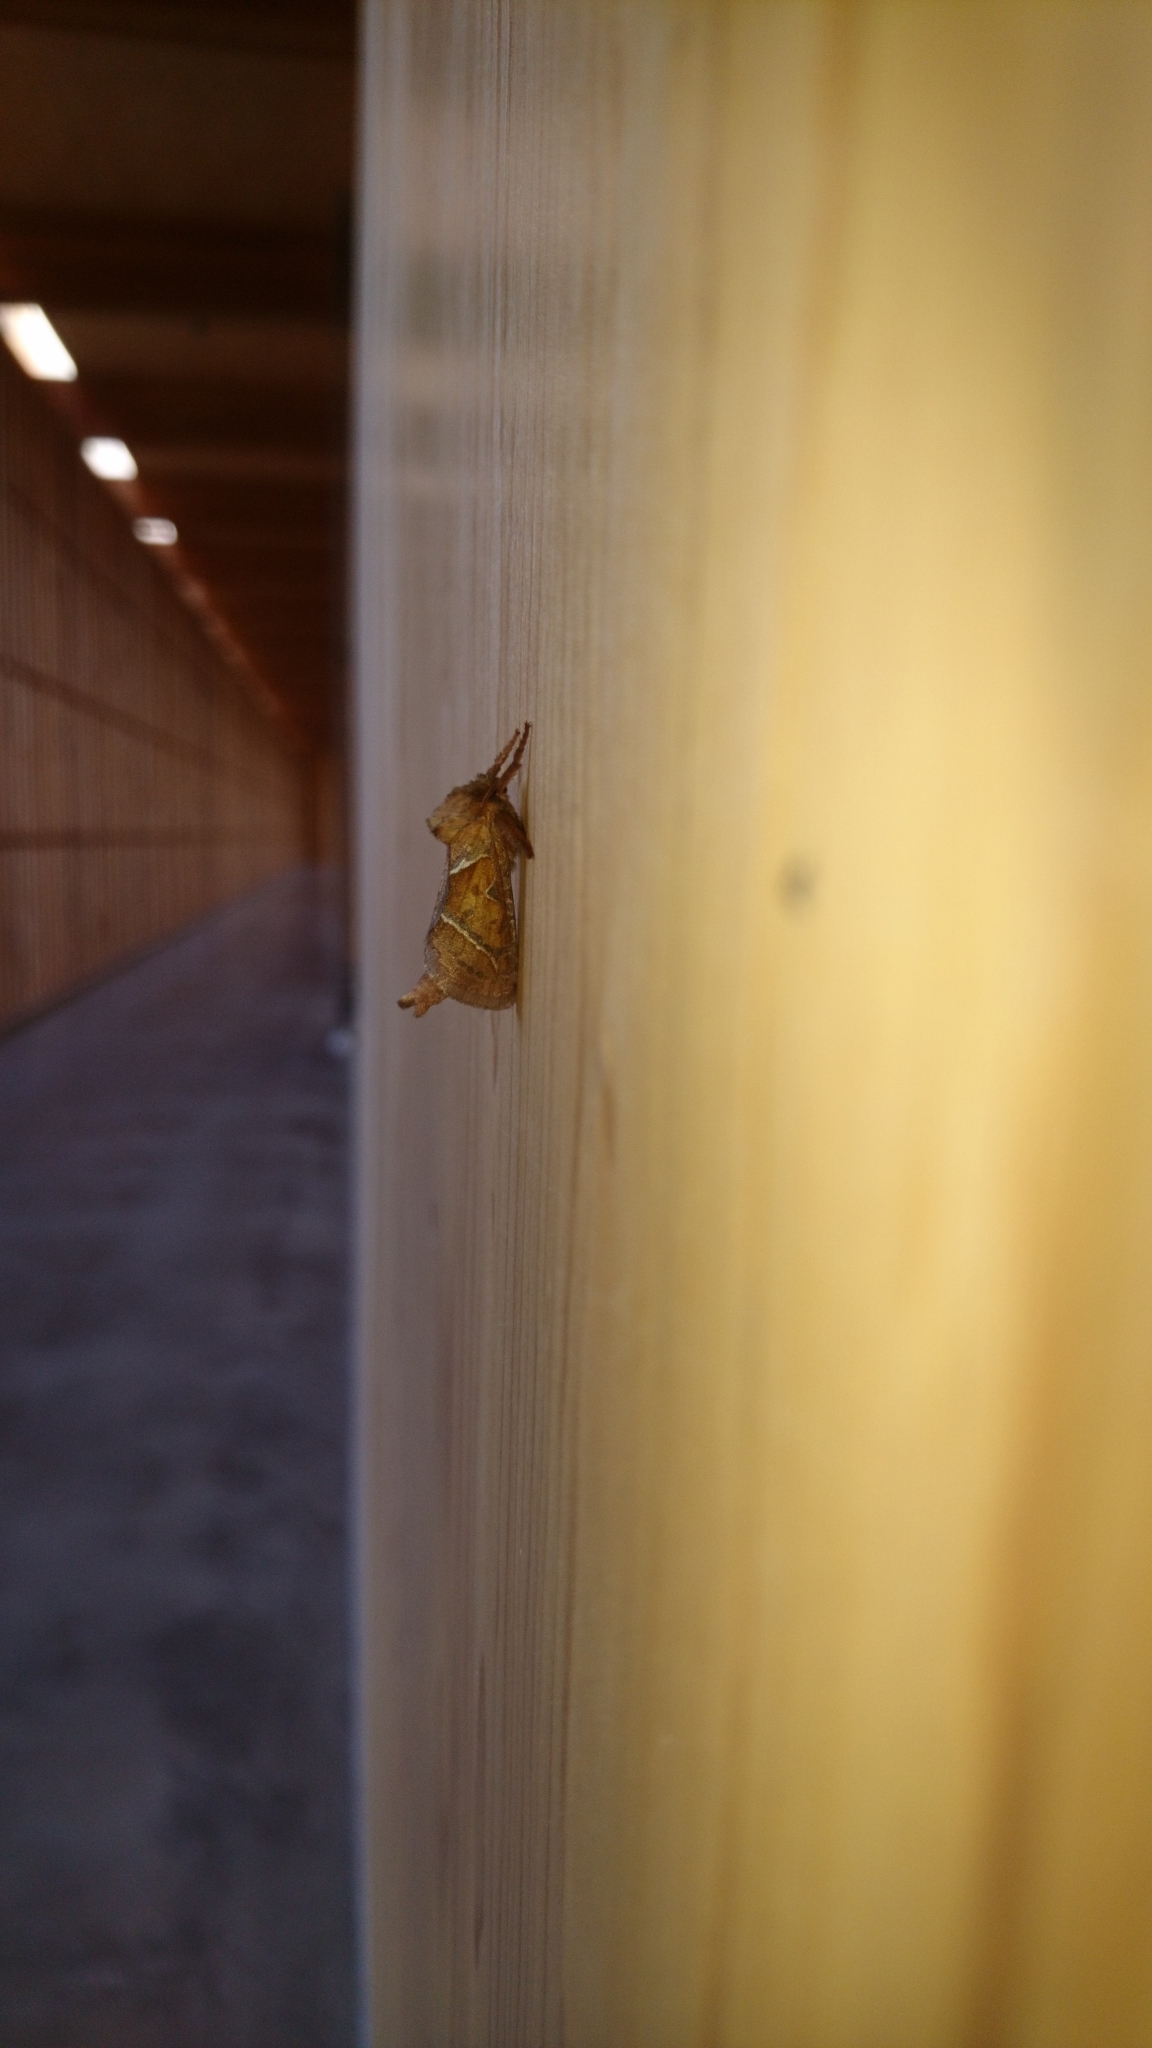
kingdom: Animalia
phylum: Arthropoda
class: Insecta
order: Lepidoptera
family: Hepialidae
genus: Triodia
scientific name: Triodia sylvina
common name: Orange swift
